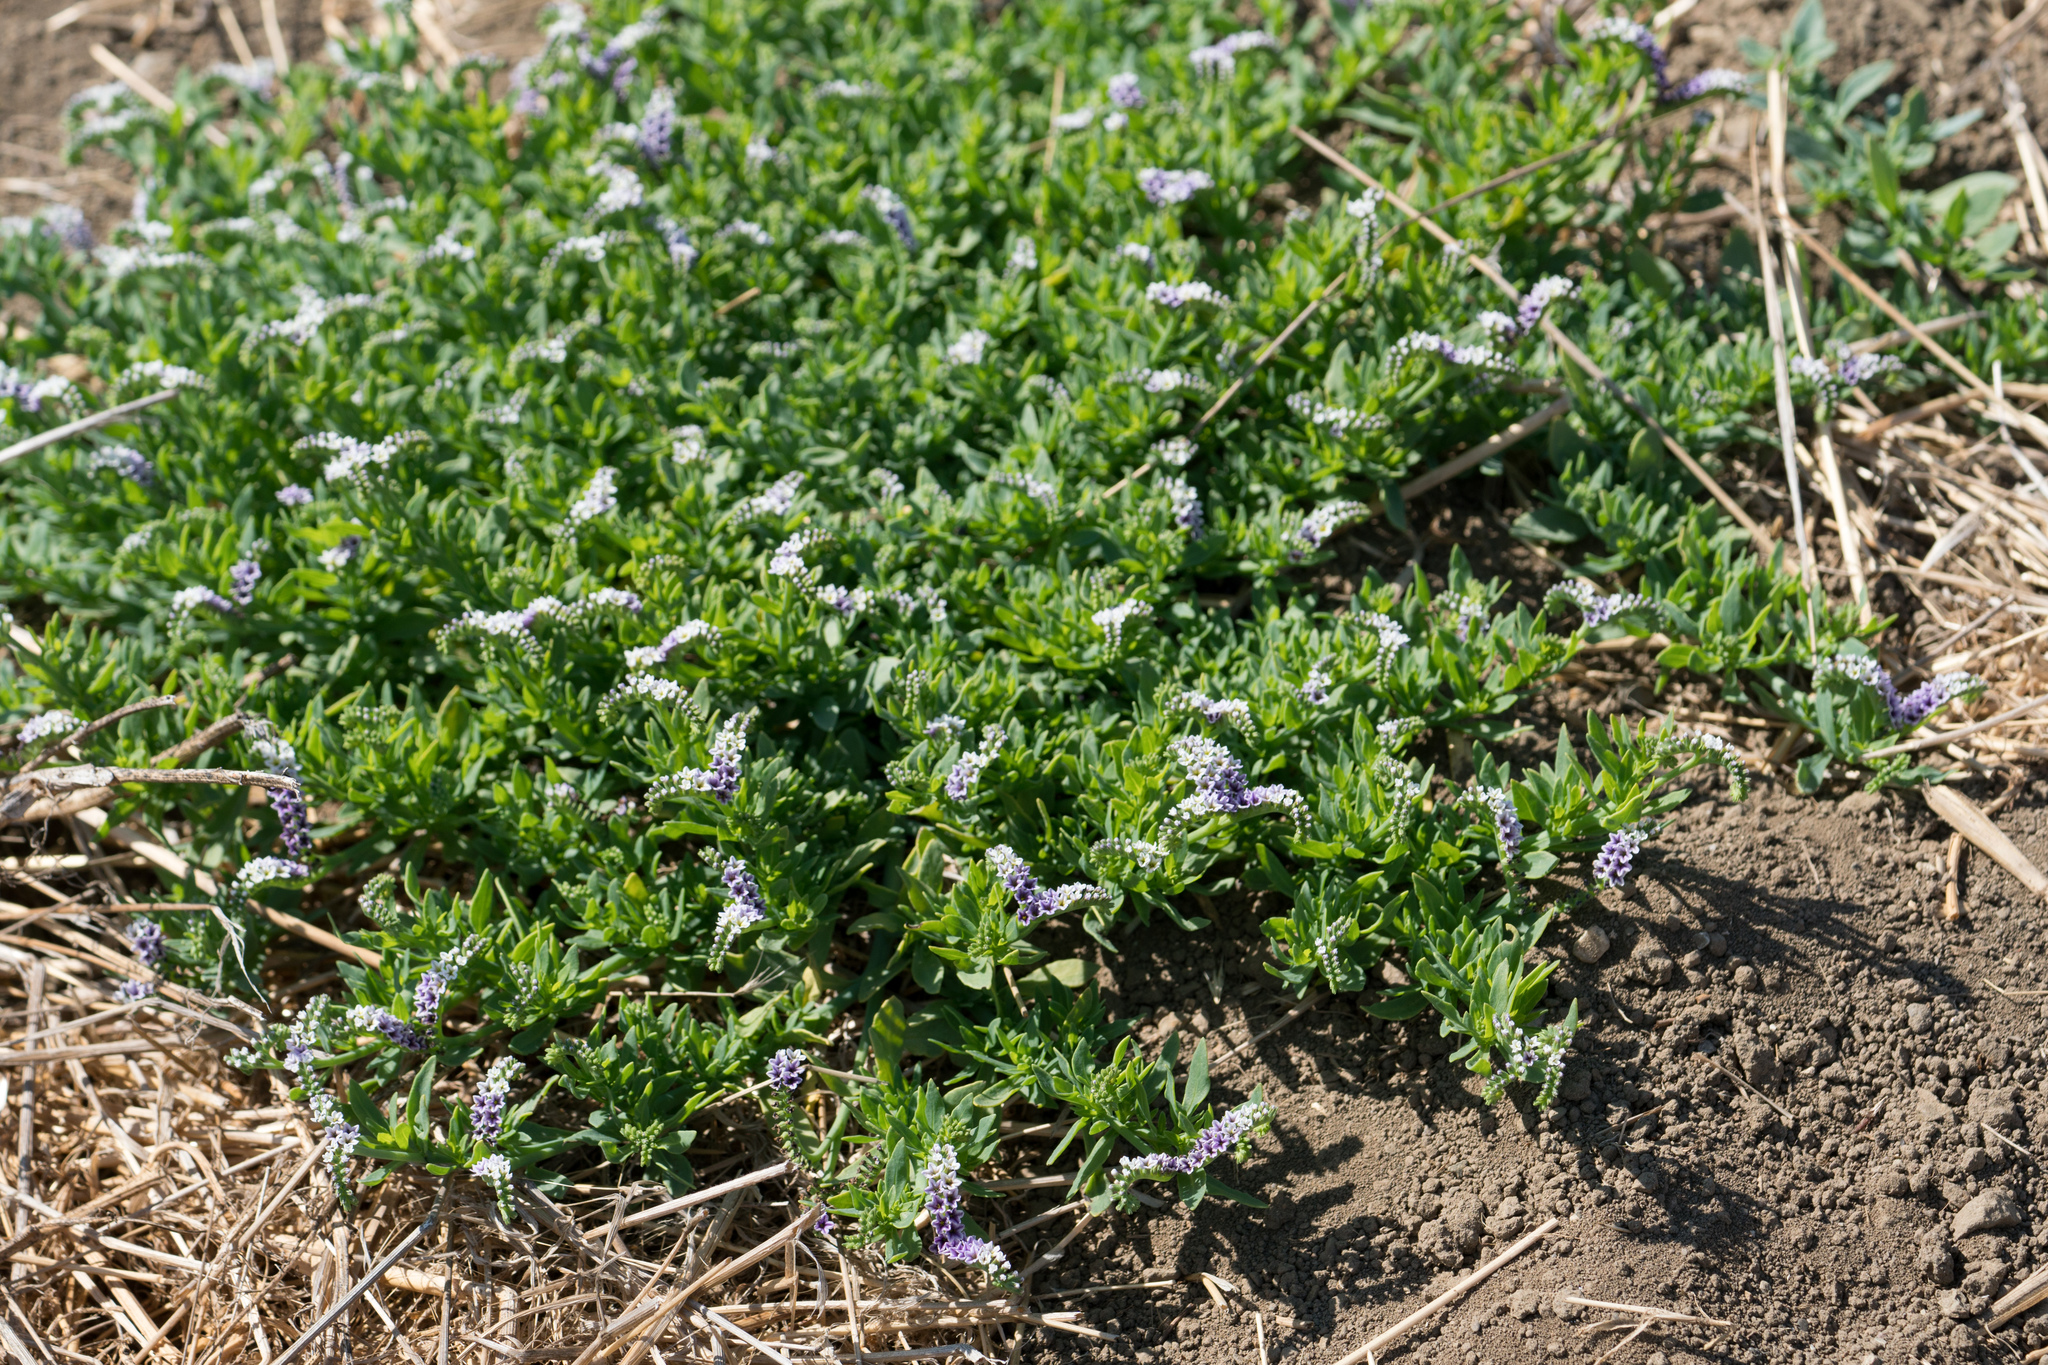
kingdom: Plantae
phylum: Tracheophyta
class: Magnoliopsida
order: Boraginales
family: Heliotropiaceae
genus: Heliotropium
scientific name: Heliotropium curassavicum
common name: Seaside heliotrope
